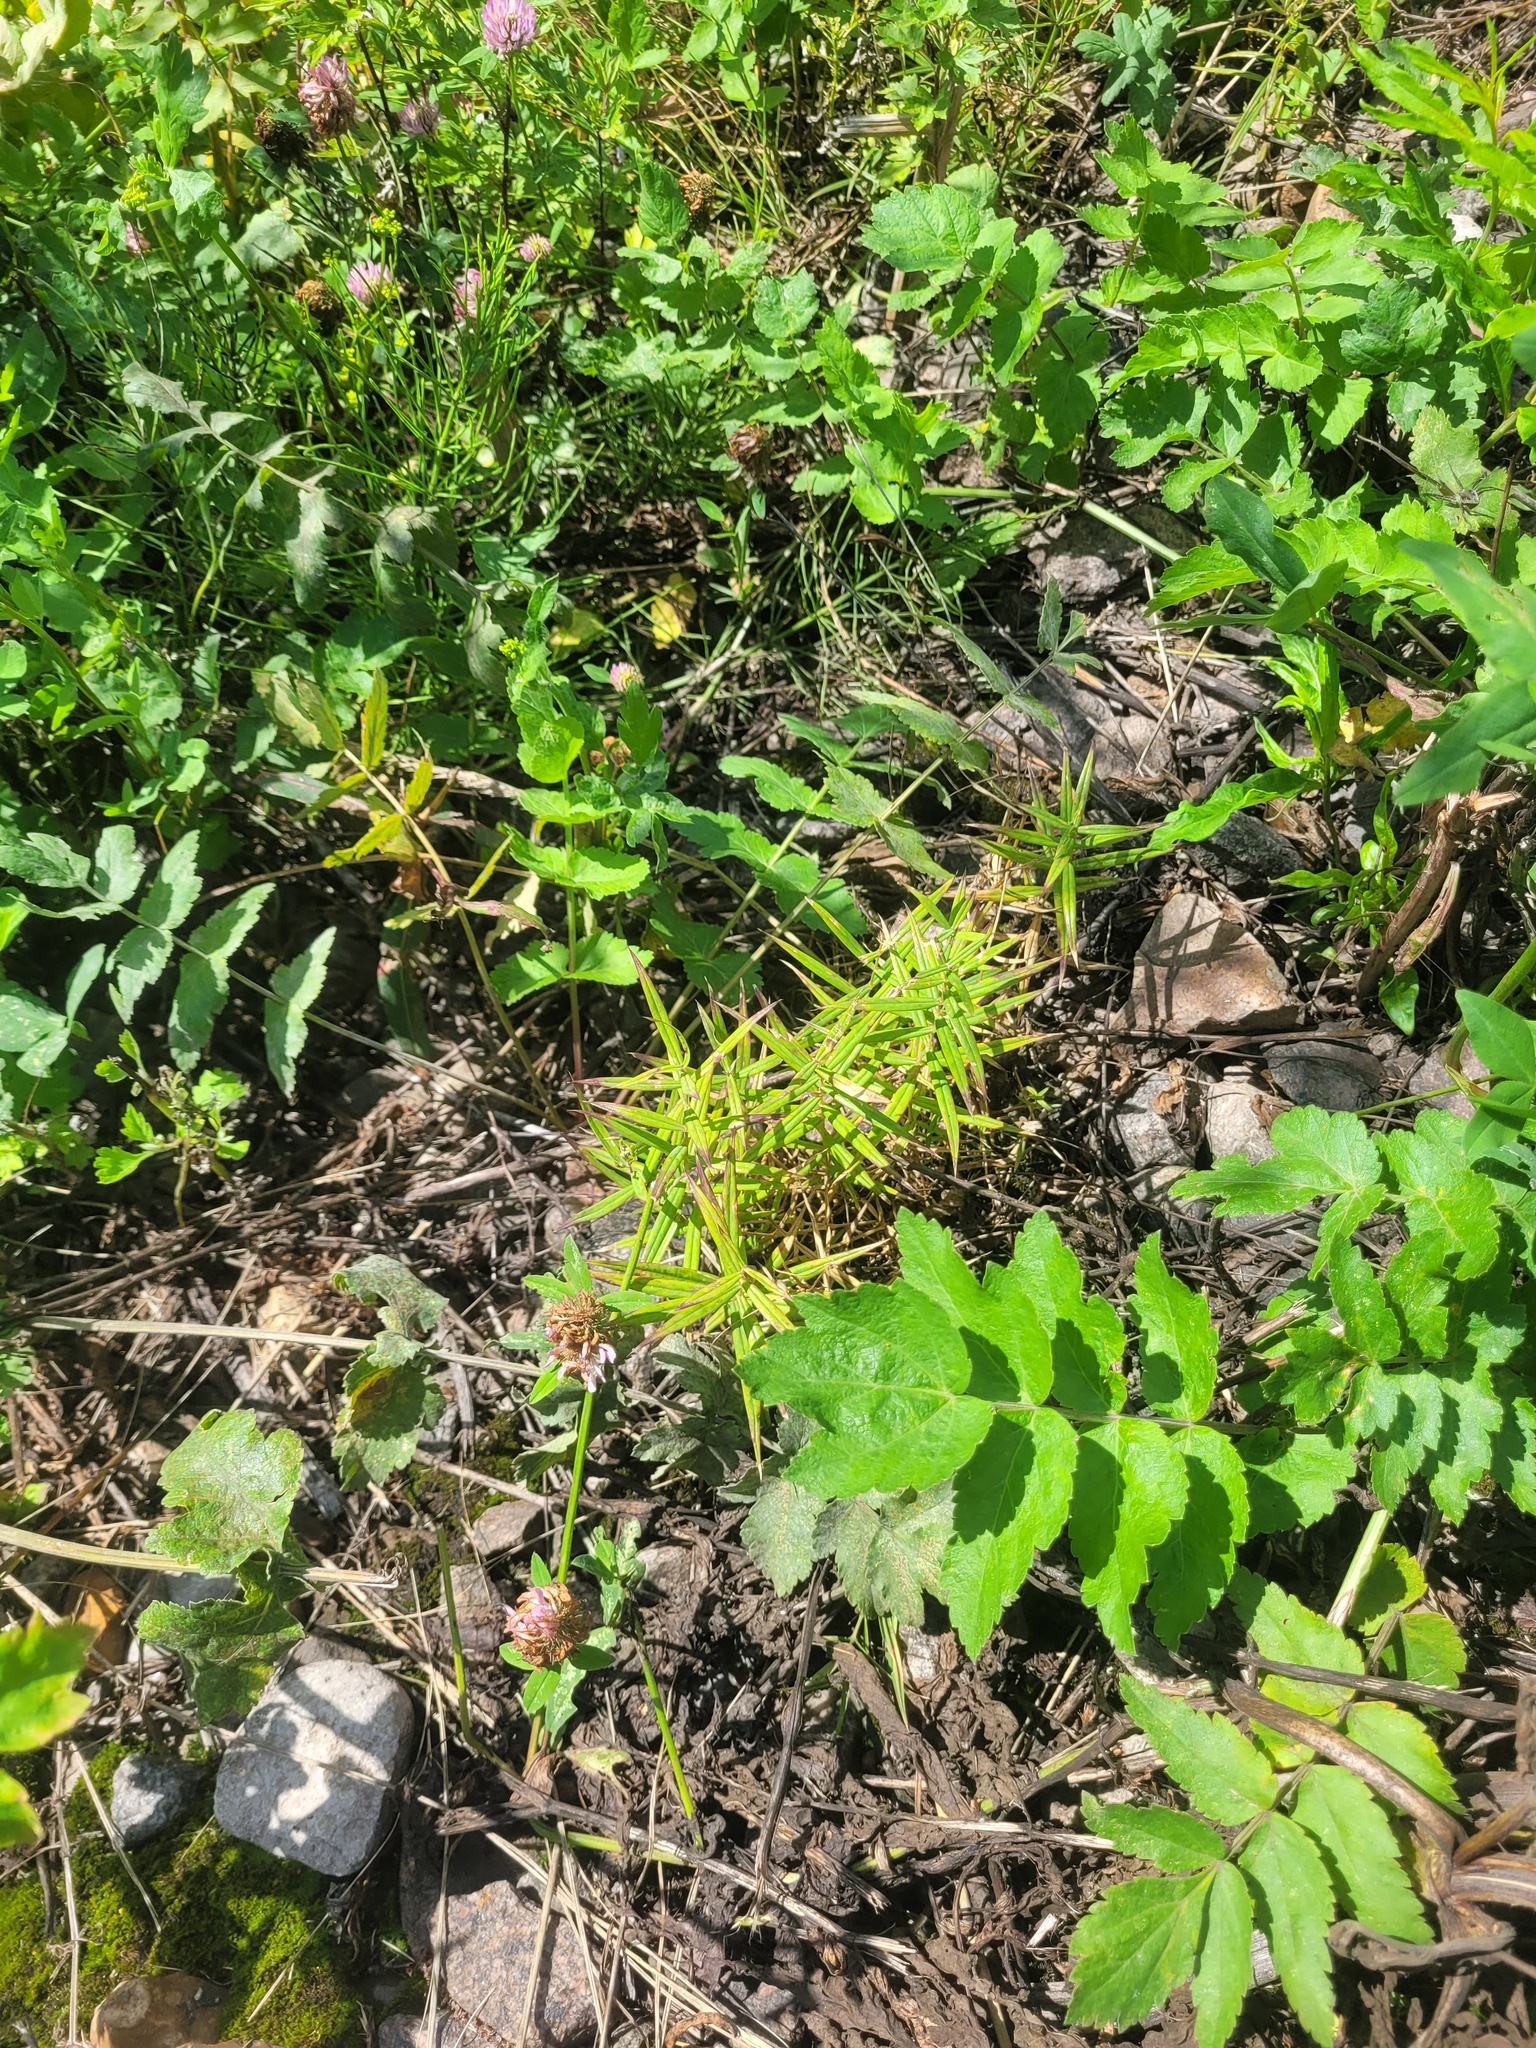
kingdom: Plantae
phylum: Tracheophyta
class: Magnoliopsida
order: Caryophyllales
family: Caryophyllaceae
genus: Rabelera
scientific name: Rabelera holostea
